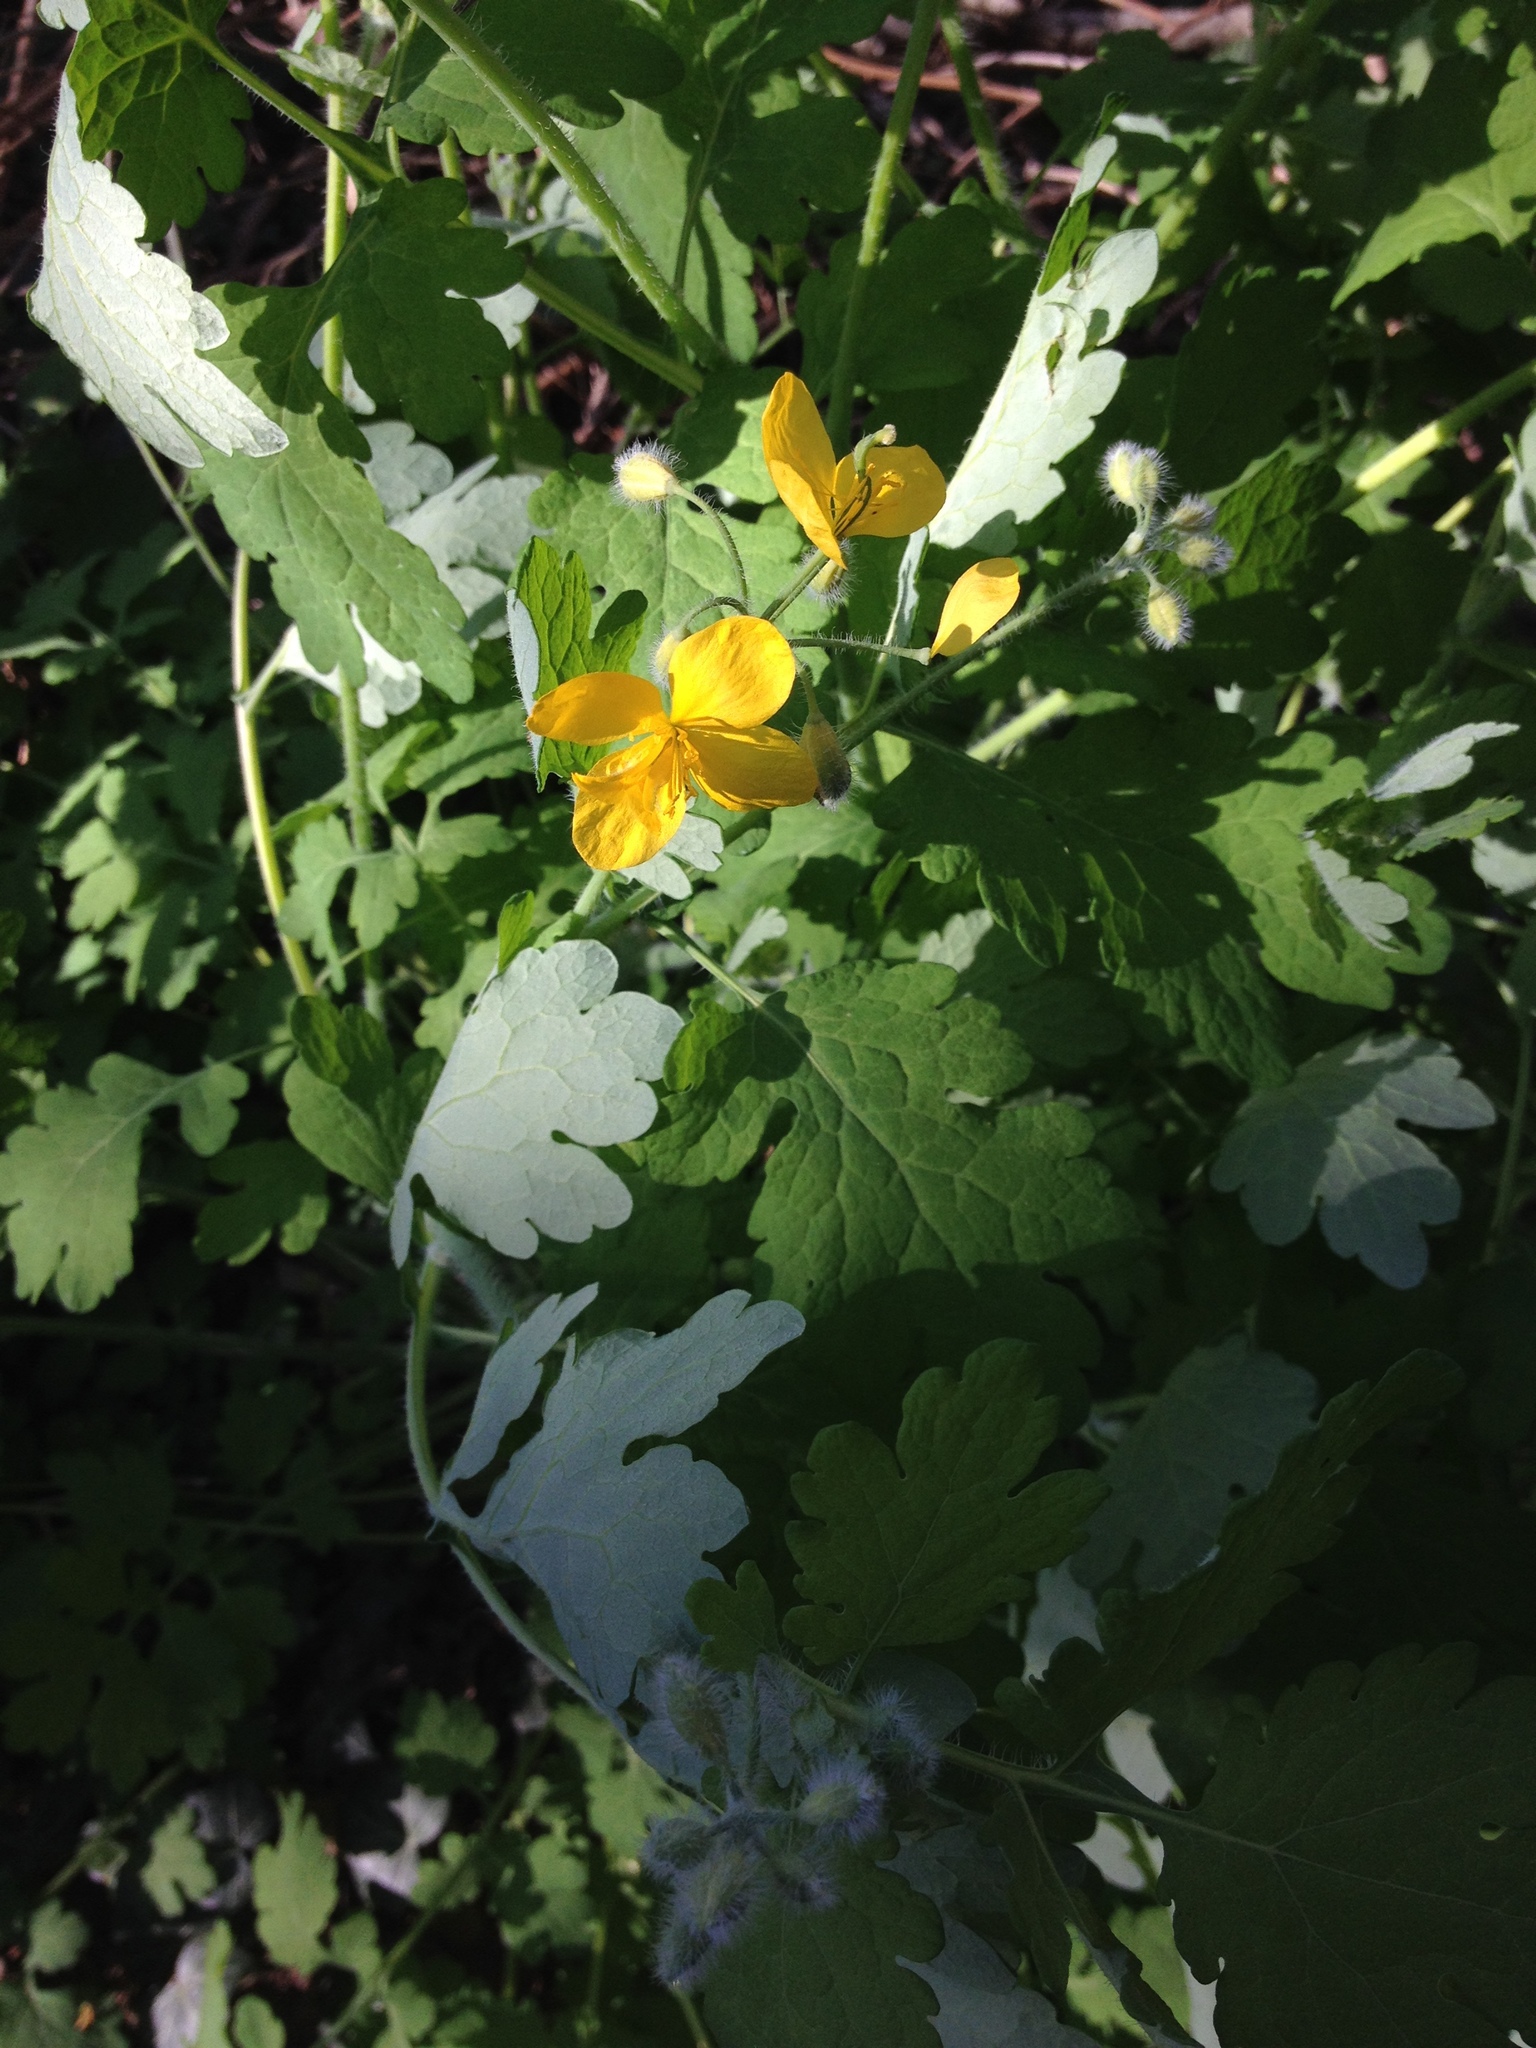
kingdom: Plantae
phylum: Tracheophyta
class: Magnoliopsida
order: Ranunculales
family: Papaveraceae
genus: Chelidonium
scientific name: Chelidonium majus
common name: Greater celandine
